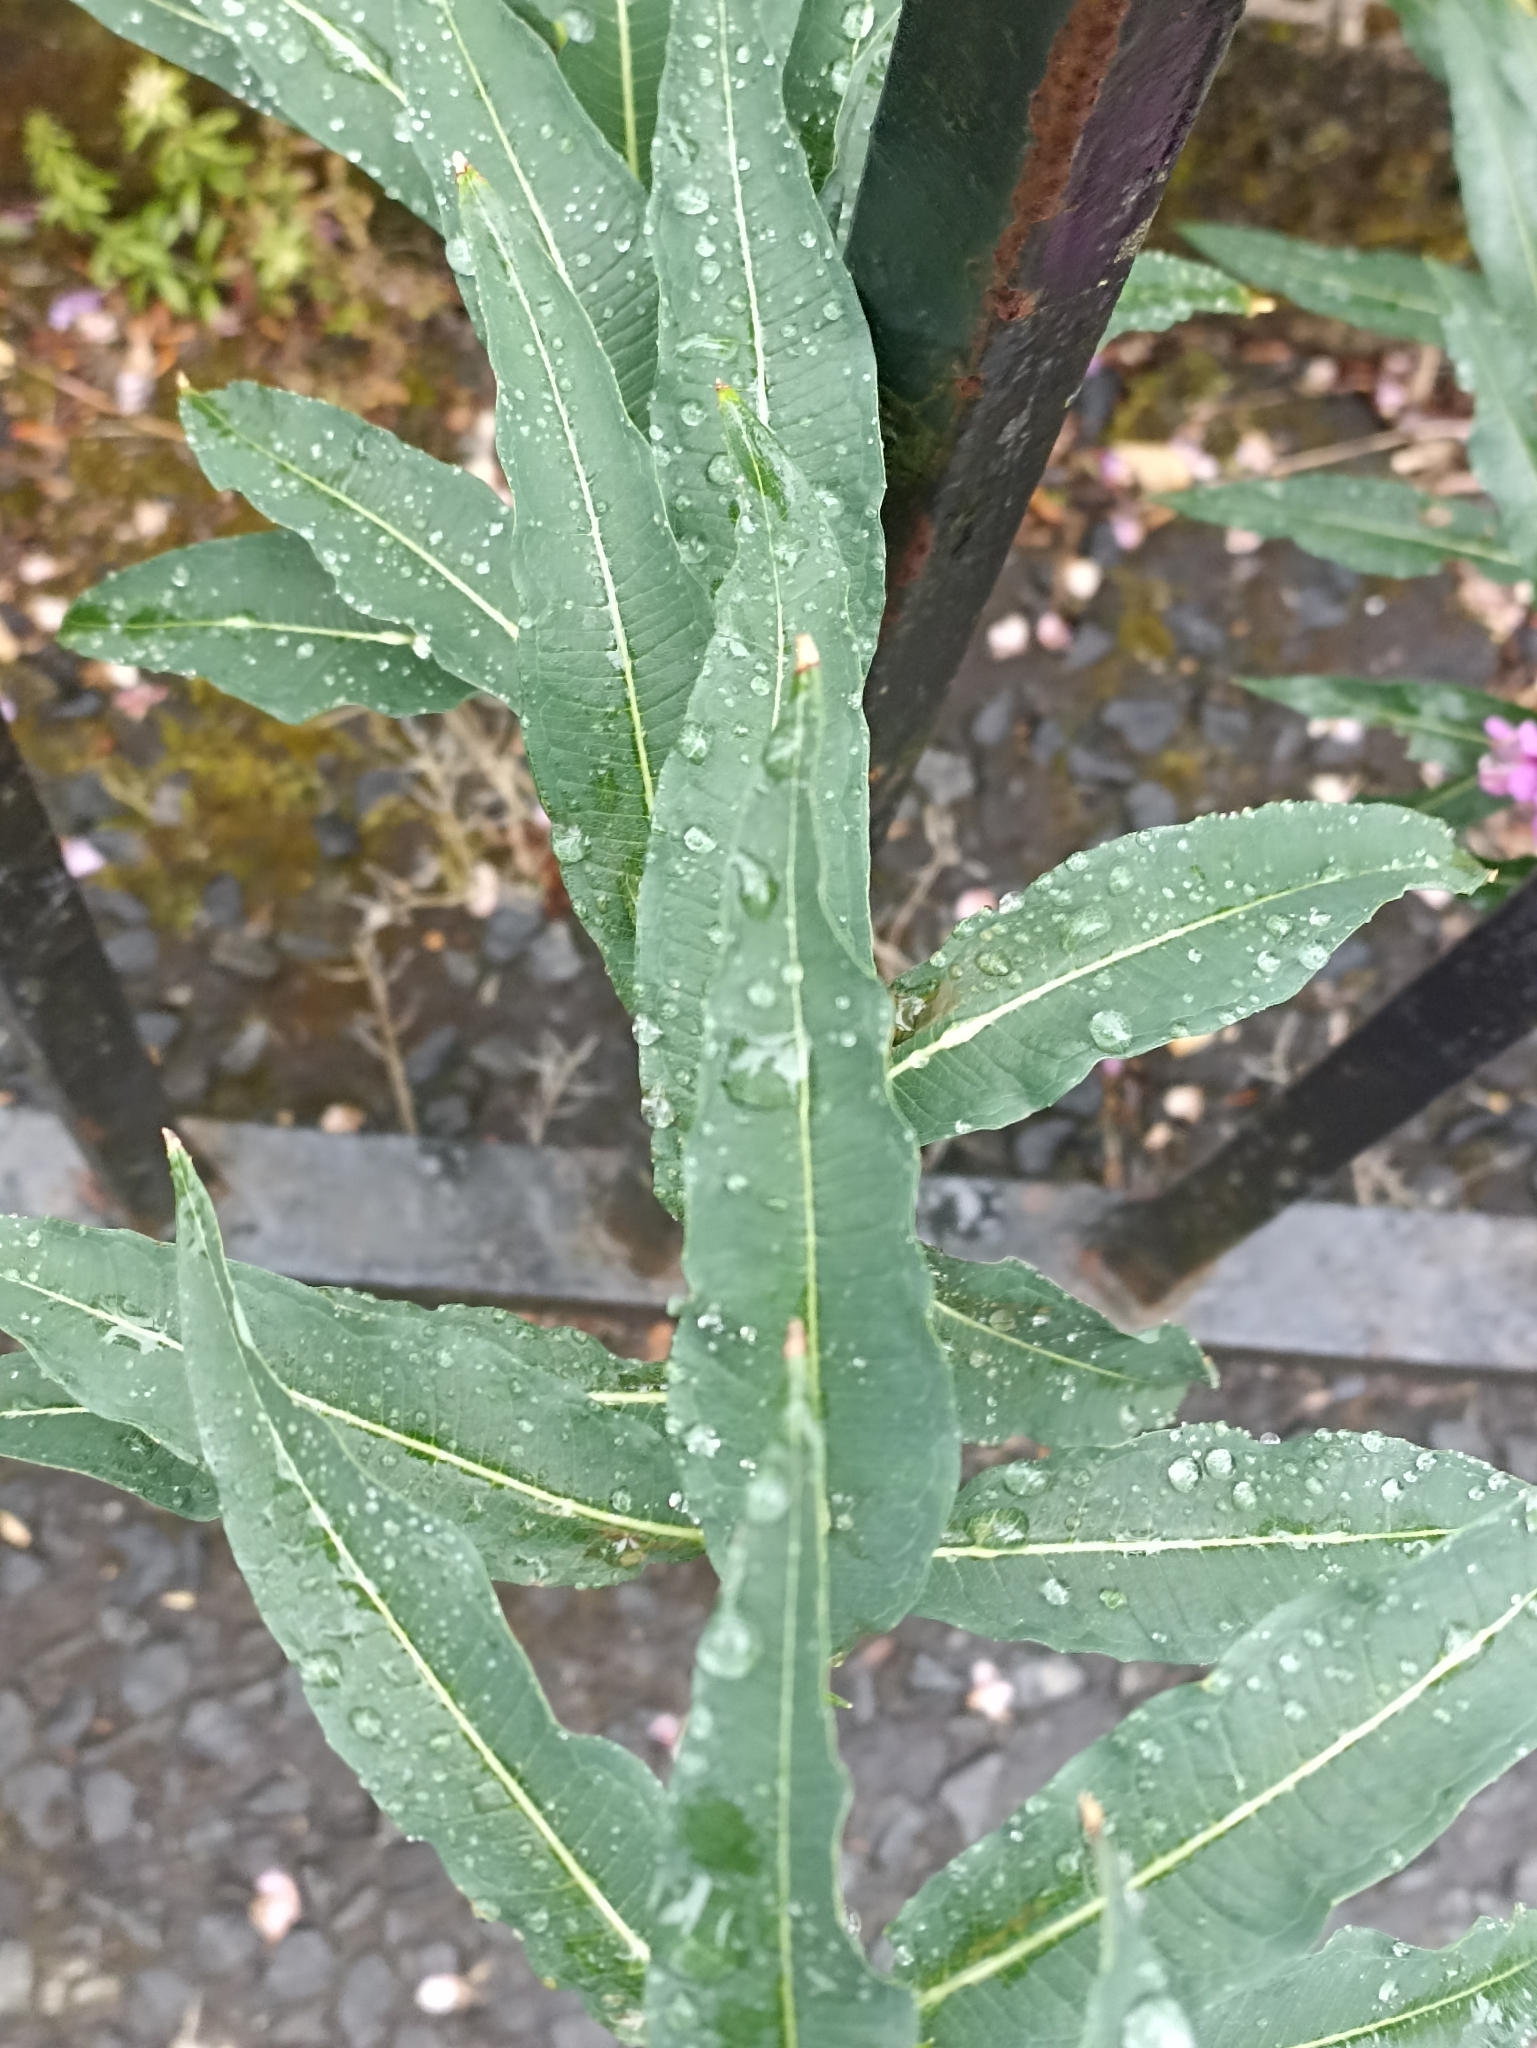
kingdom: Plantae
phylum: Tracheophyta
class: Magnoliopsida
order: Myrtales
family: Onagraceae
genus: Chamaenerion
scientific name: Chamaenerion angustifolium
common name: Fireweed
